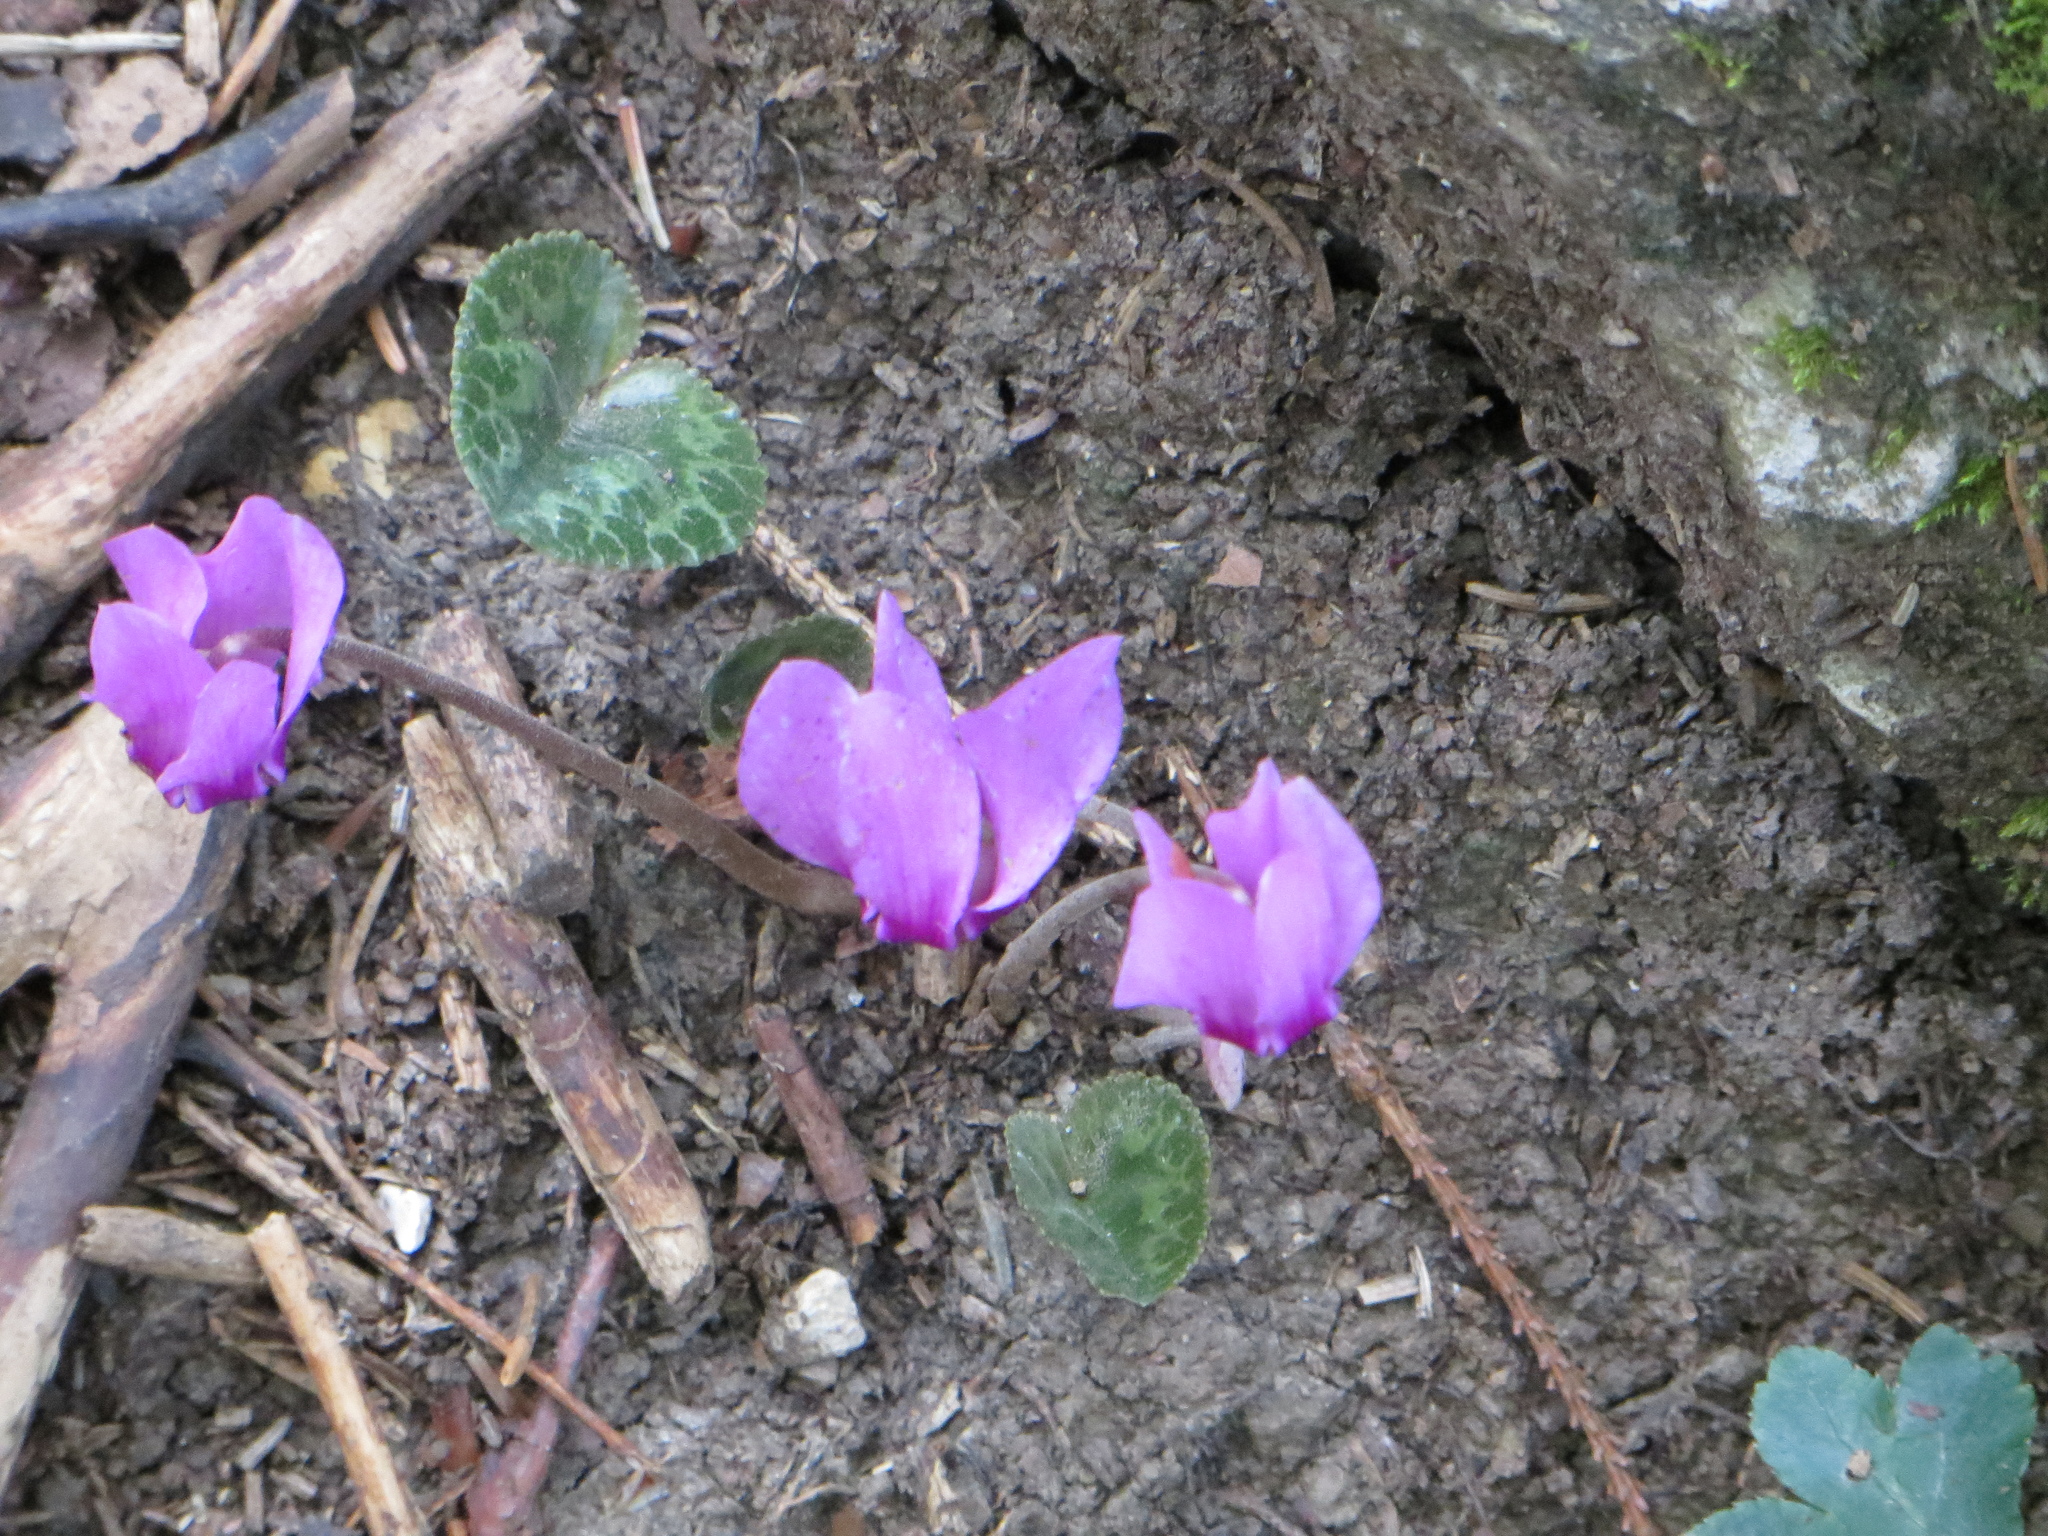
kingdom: Plantae
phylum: Tracheophyta
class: Magnoliopsida
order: Ericales
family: Primulaceae
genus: Cyclamen
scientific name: Cyclamen purpurascens
